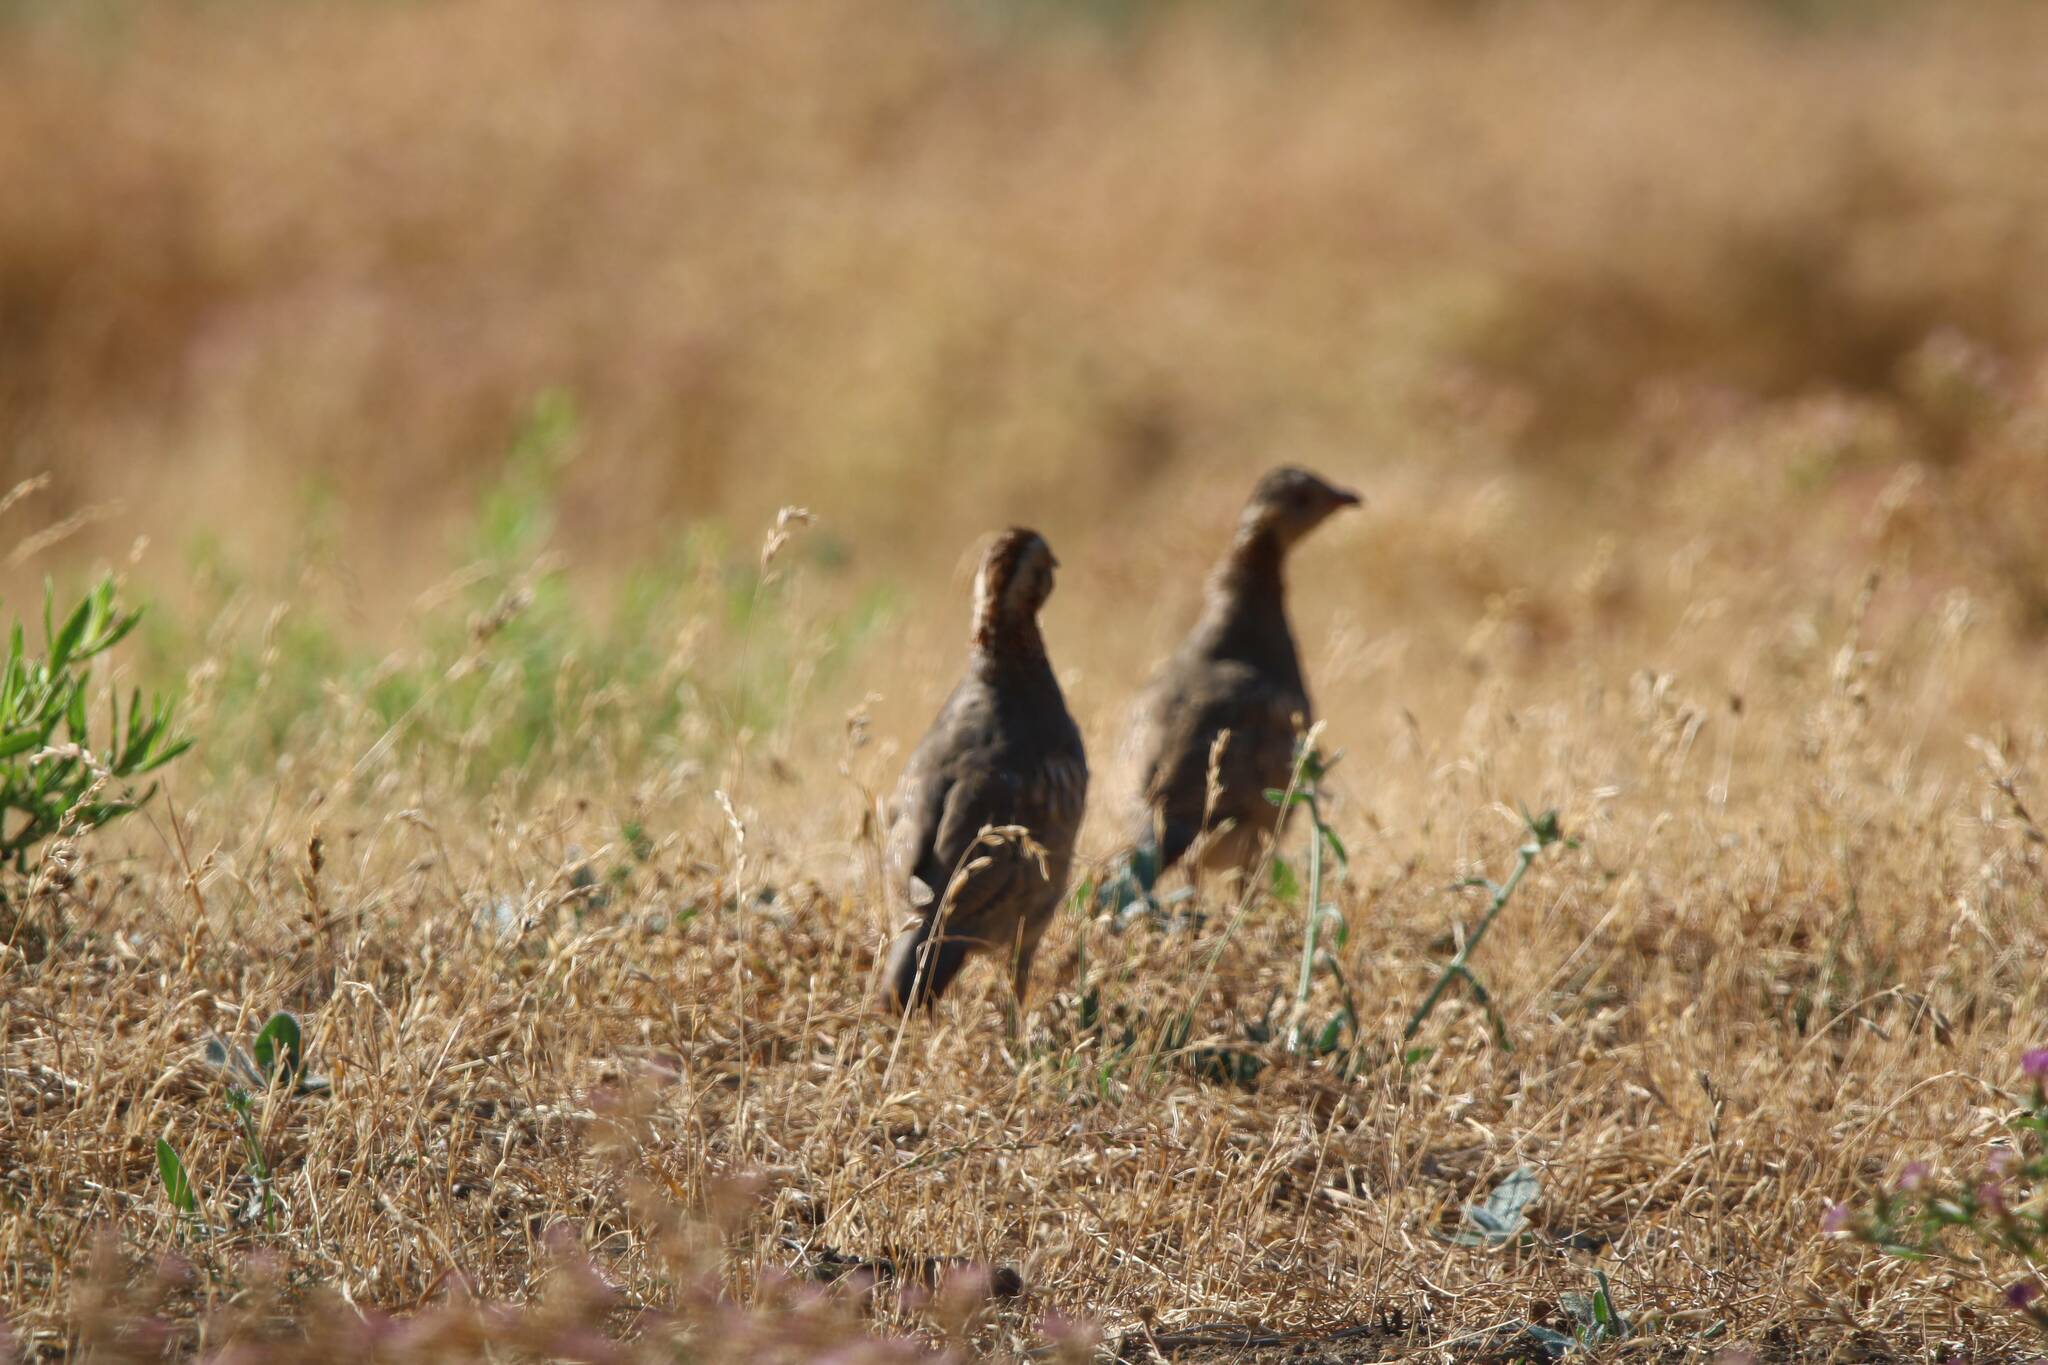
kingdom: Animalia
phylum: Chordata
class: Aves
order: Galliformes
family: Phasianidae
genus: Alectoris
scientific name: Alectoris barbara
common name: Barbary partridge
